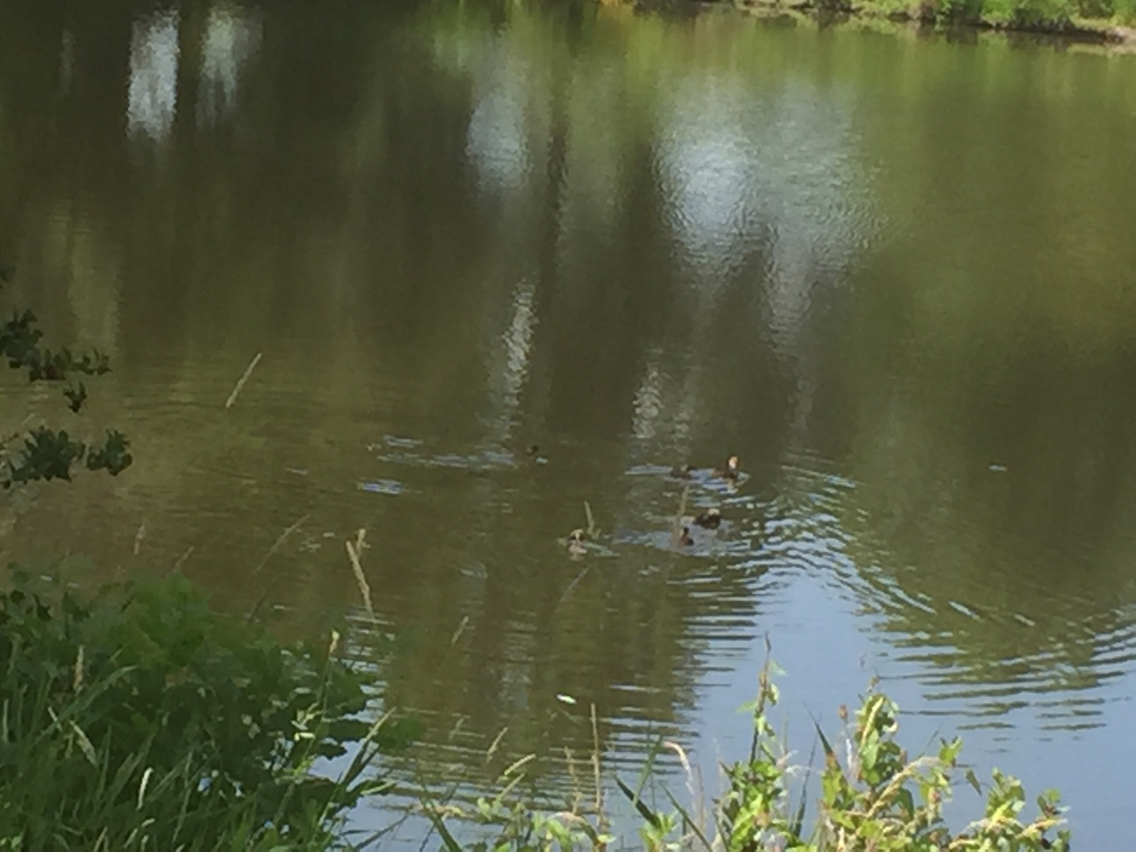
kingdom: Animalia
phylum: Chordata
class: Aves
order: Anseriformes
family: Anatidae
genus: Lophodytes
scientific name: Lophodytes cucullatus
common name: Hooded merganser
